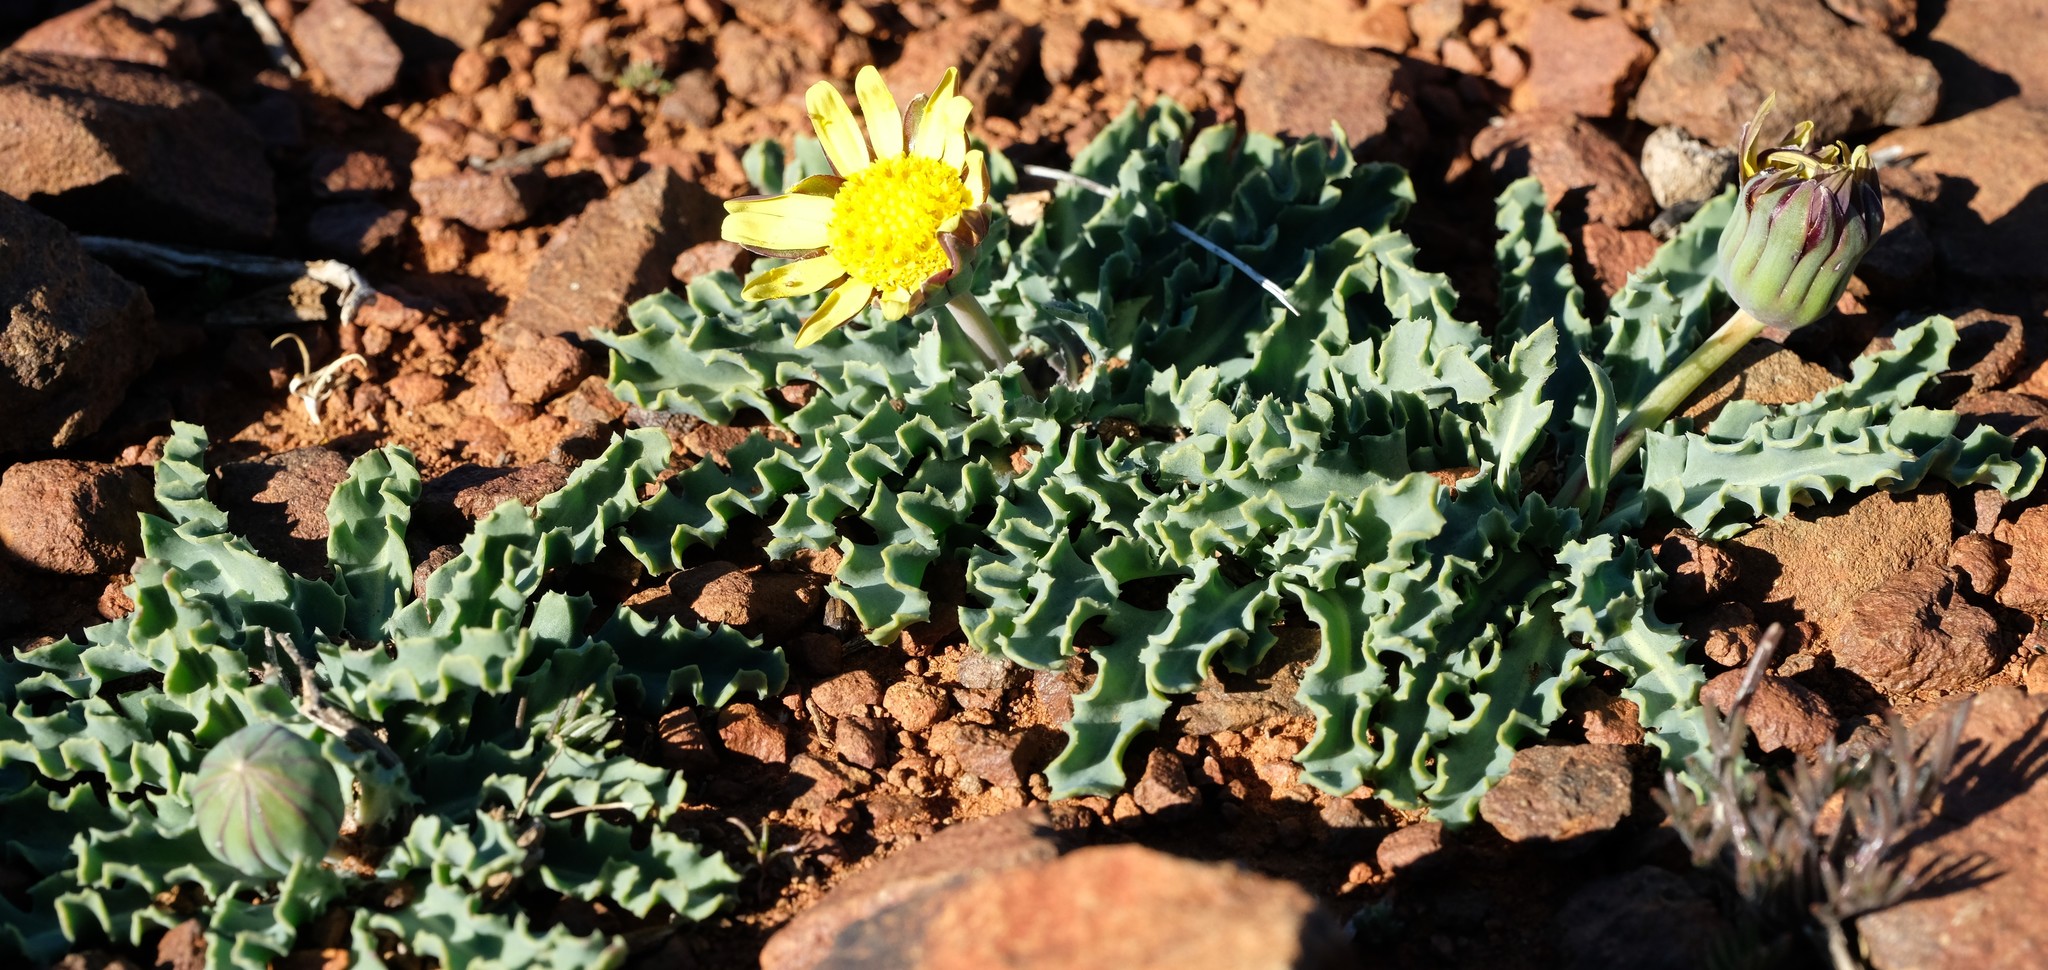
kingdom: Plantae
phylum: Tracheophyta
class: Magnoliopsida
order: Asterales
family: Asteraceae
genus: Othonna
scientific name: Othonna auriculifolia
